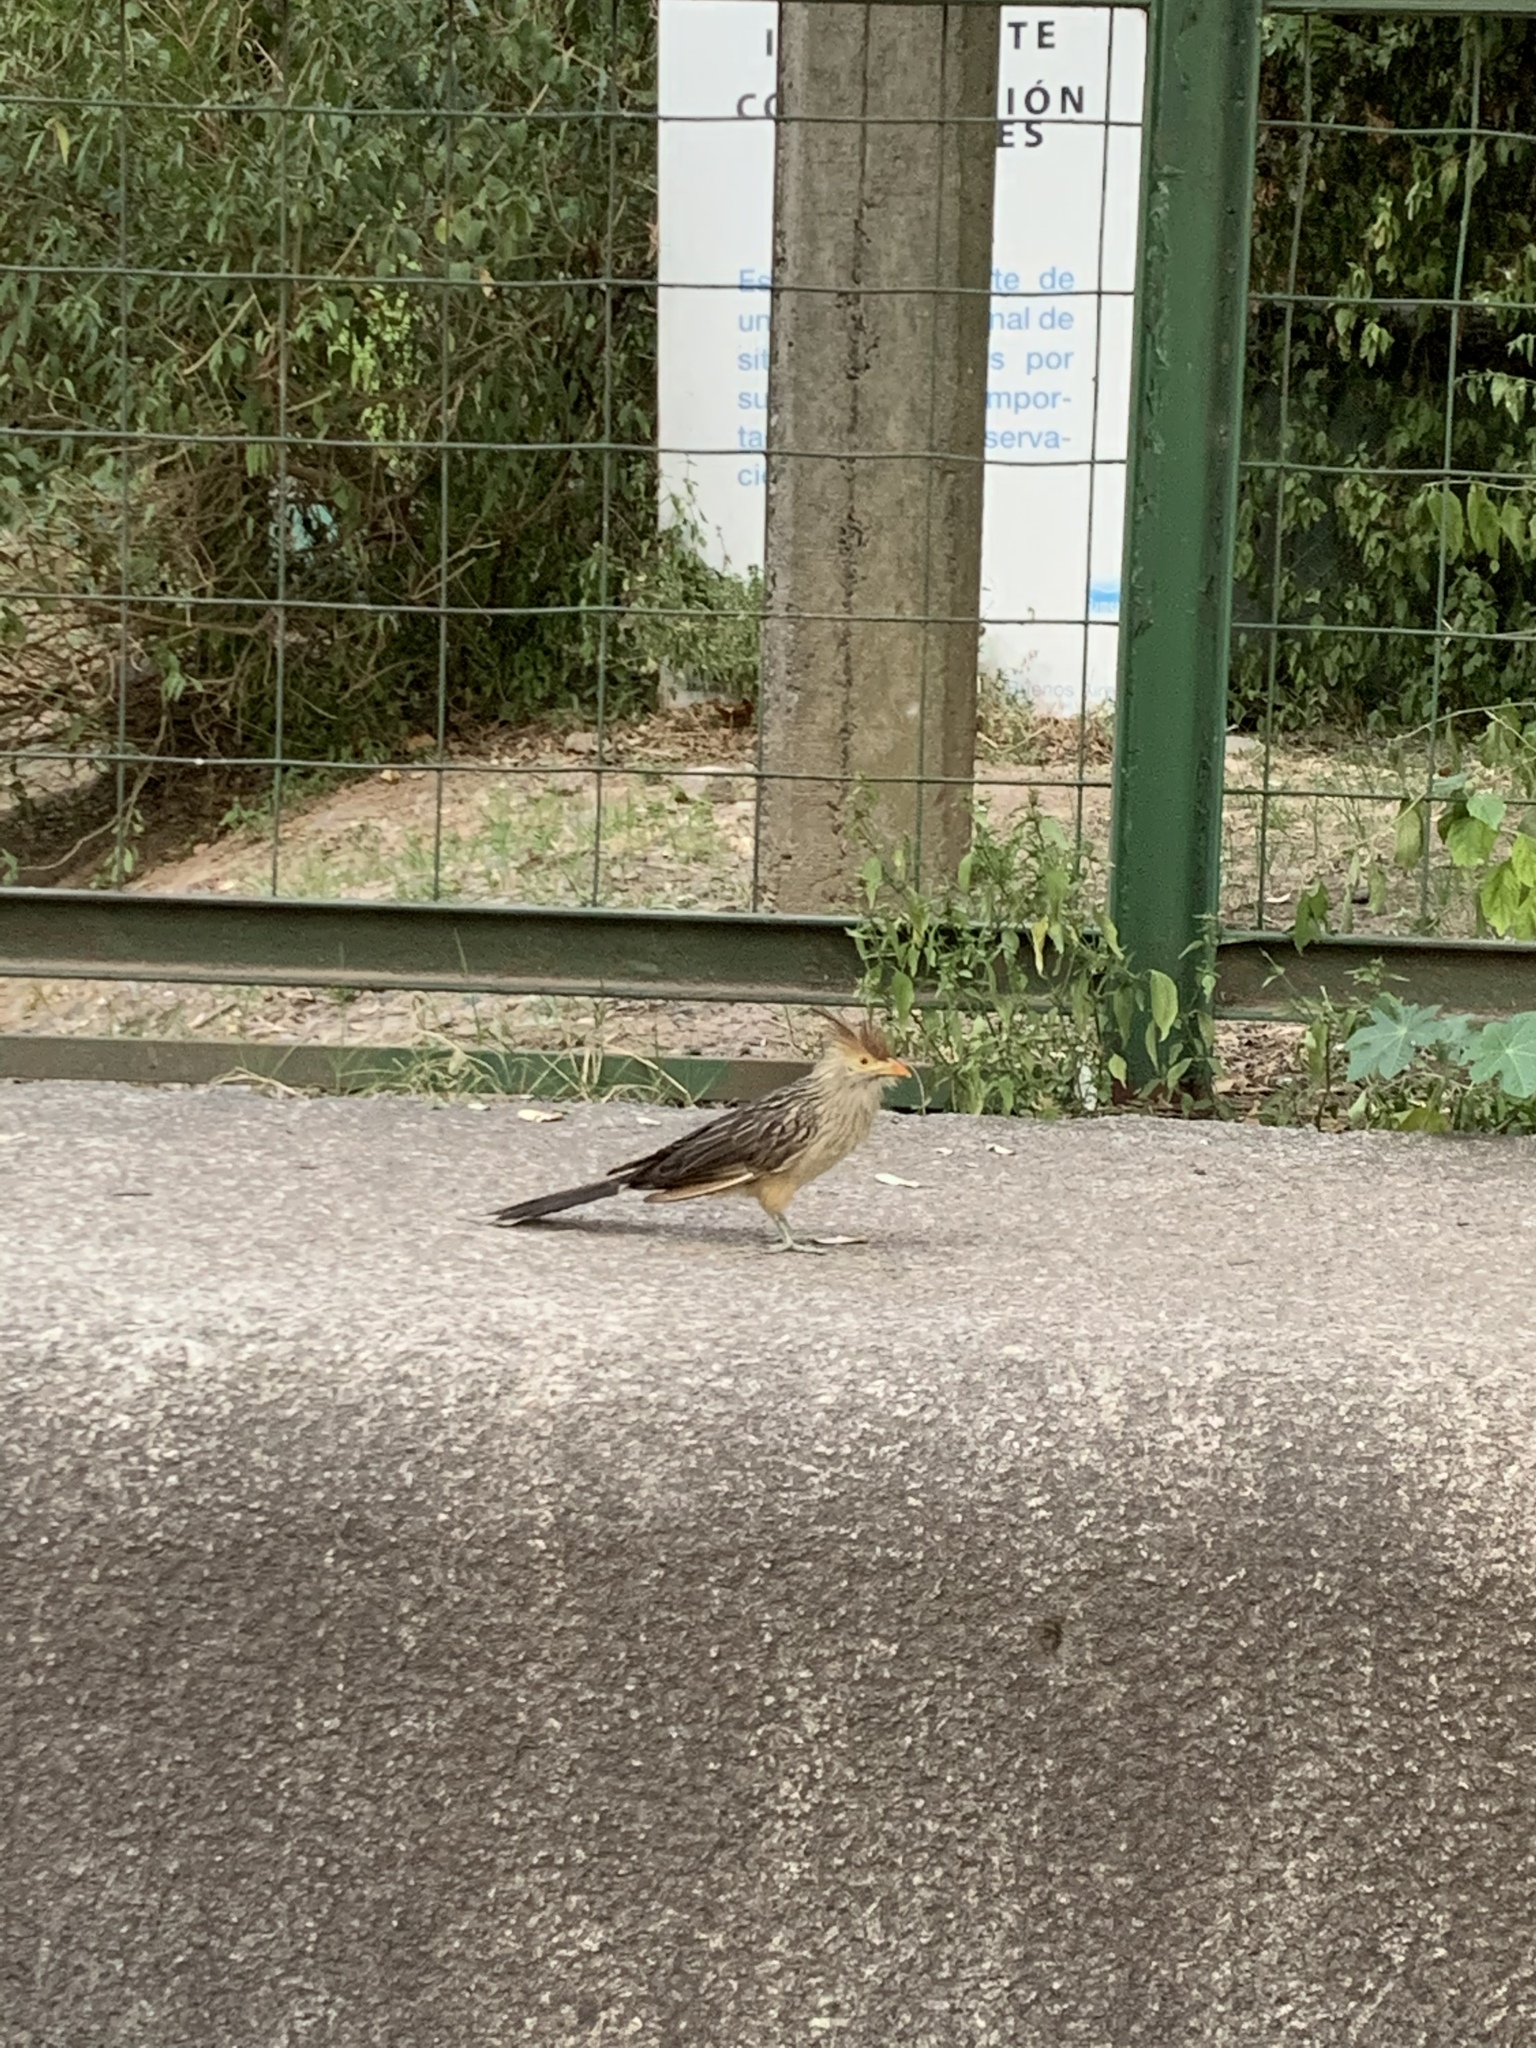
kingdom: Animalia
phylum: Chordata
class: Aves
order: Cuculiformes
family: Cuculidae
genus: Guira
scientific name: Guira guira
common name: Guira cuckoo
